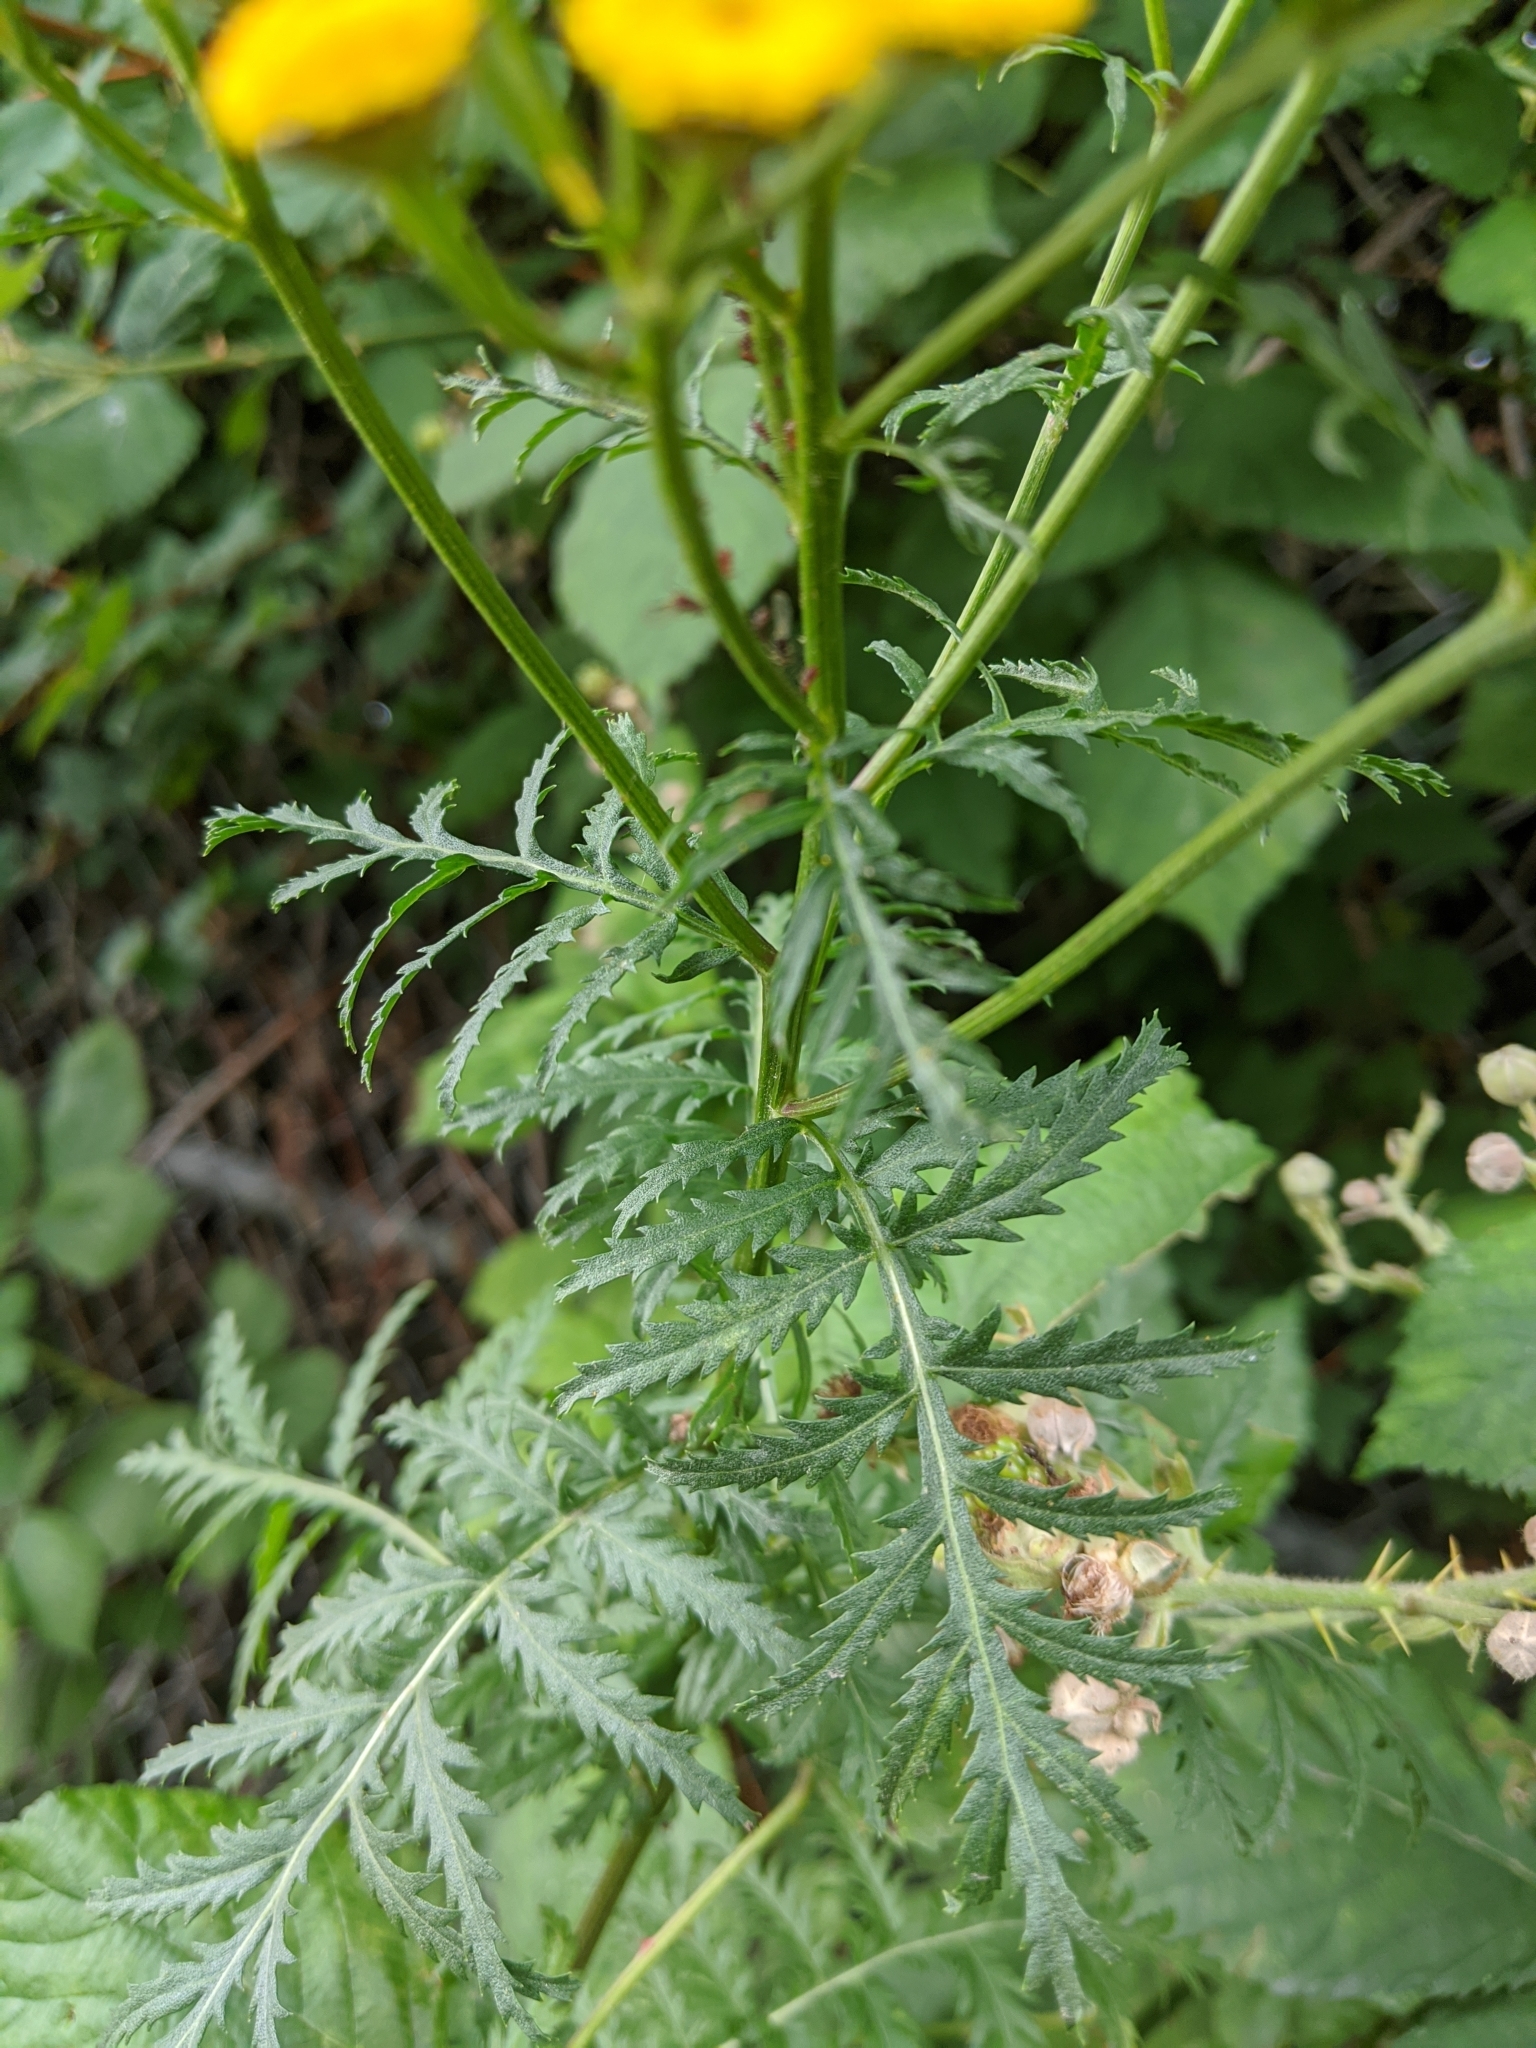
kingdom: Plantae
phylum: Tracheophyta
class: Magnoliopsida
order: Asterales
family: Asteraceae
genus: Tanacetum
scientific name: Tanacetum vulgare
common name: Common tansy
